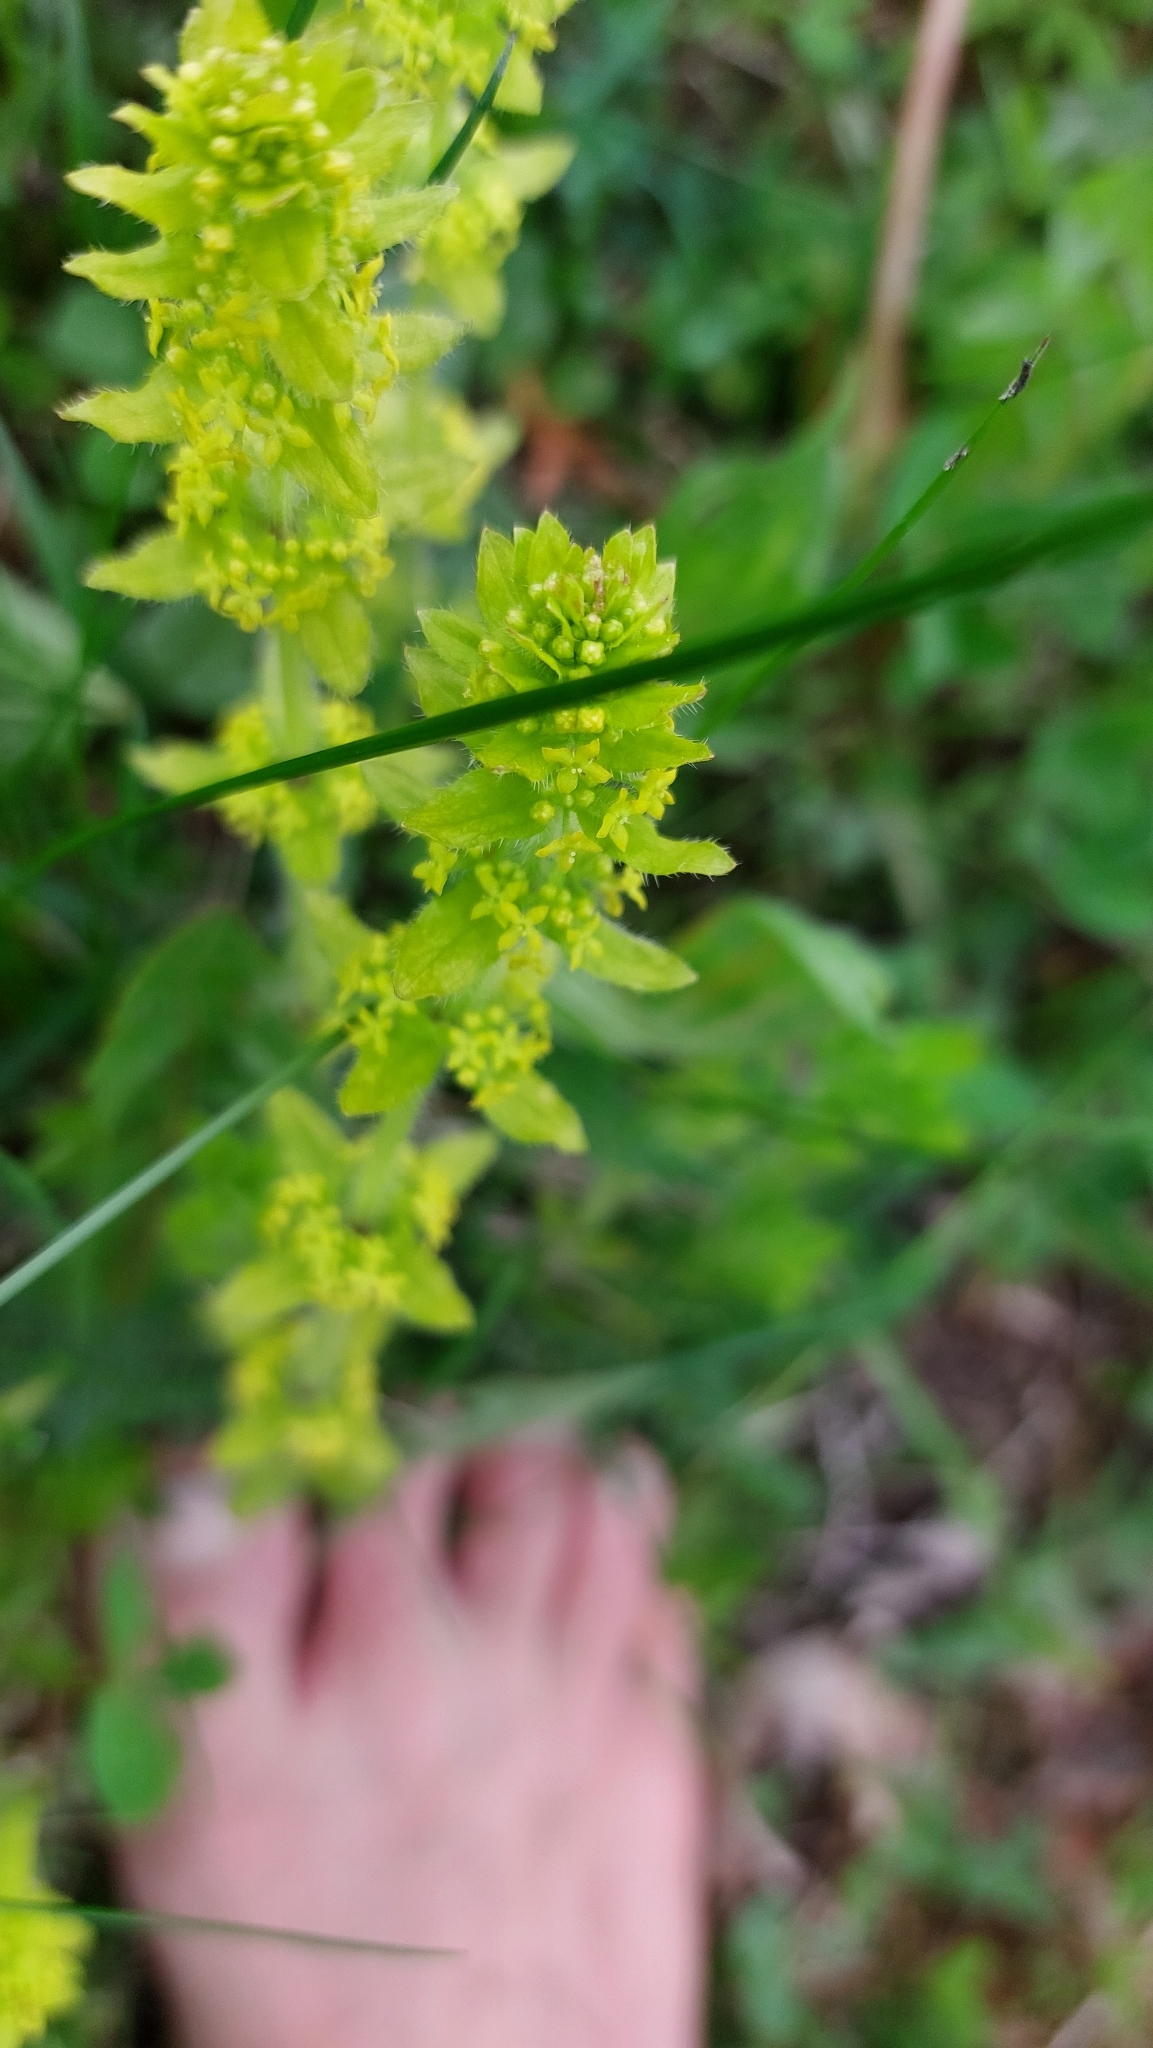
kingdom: Plantae
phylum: Tracheophyta
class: Magnoliopsida
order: Gentianales
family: Rubiaceae
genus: Cruciata
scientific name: Cruciata laevipes
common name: Crosswort
